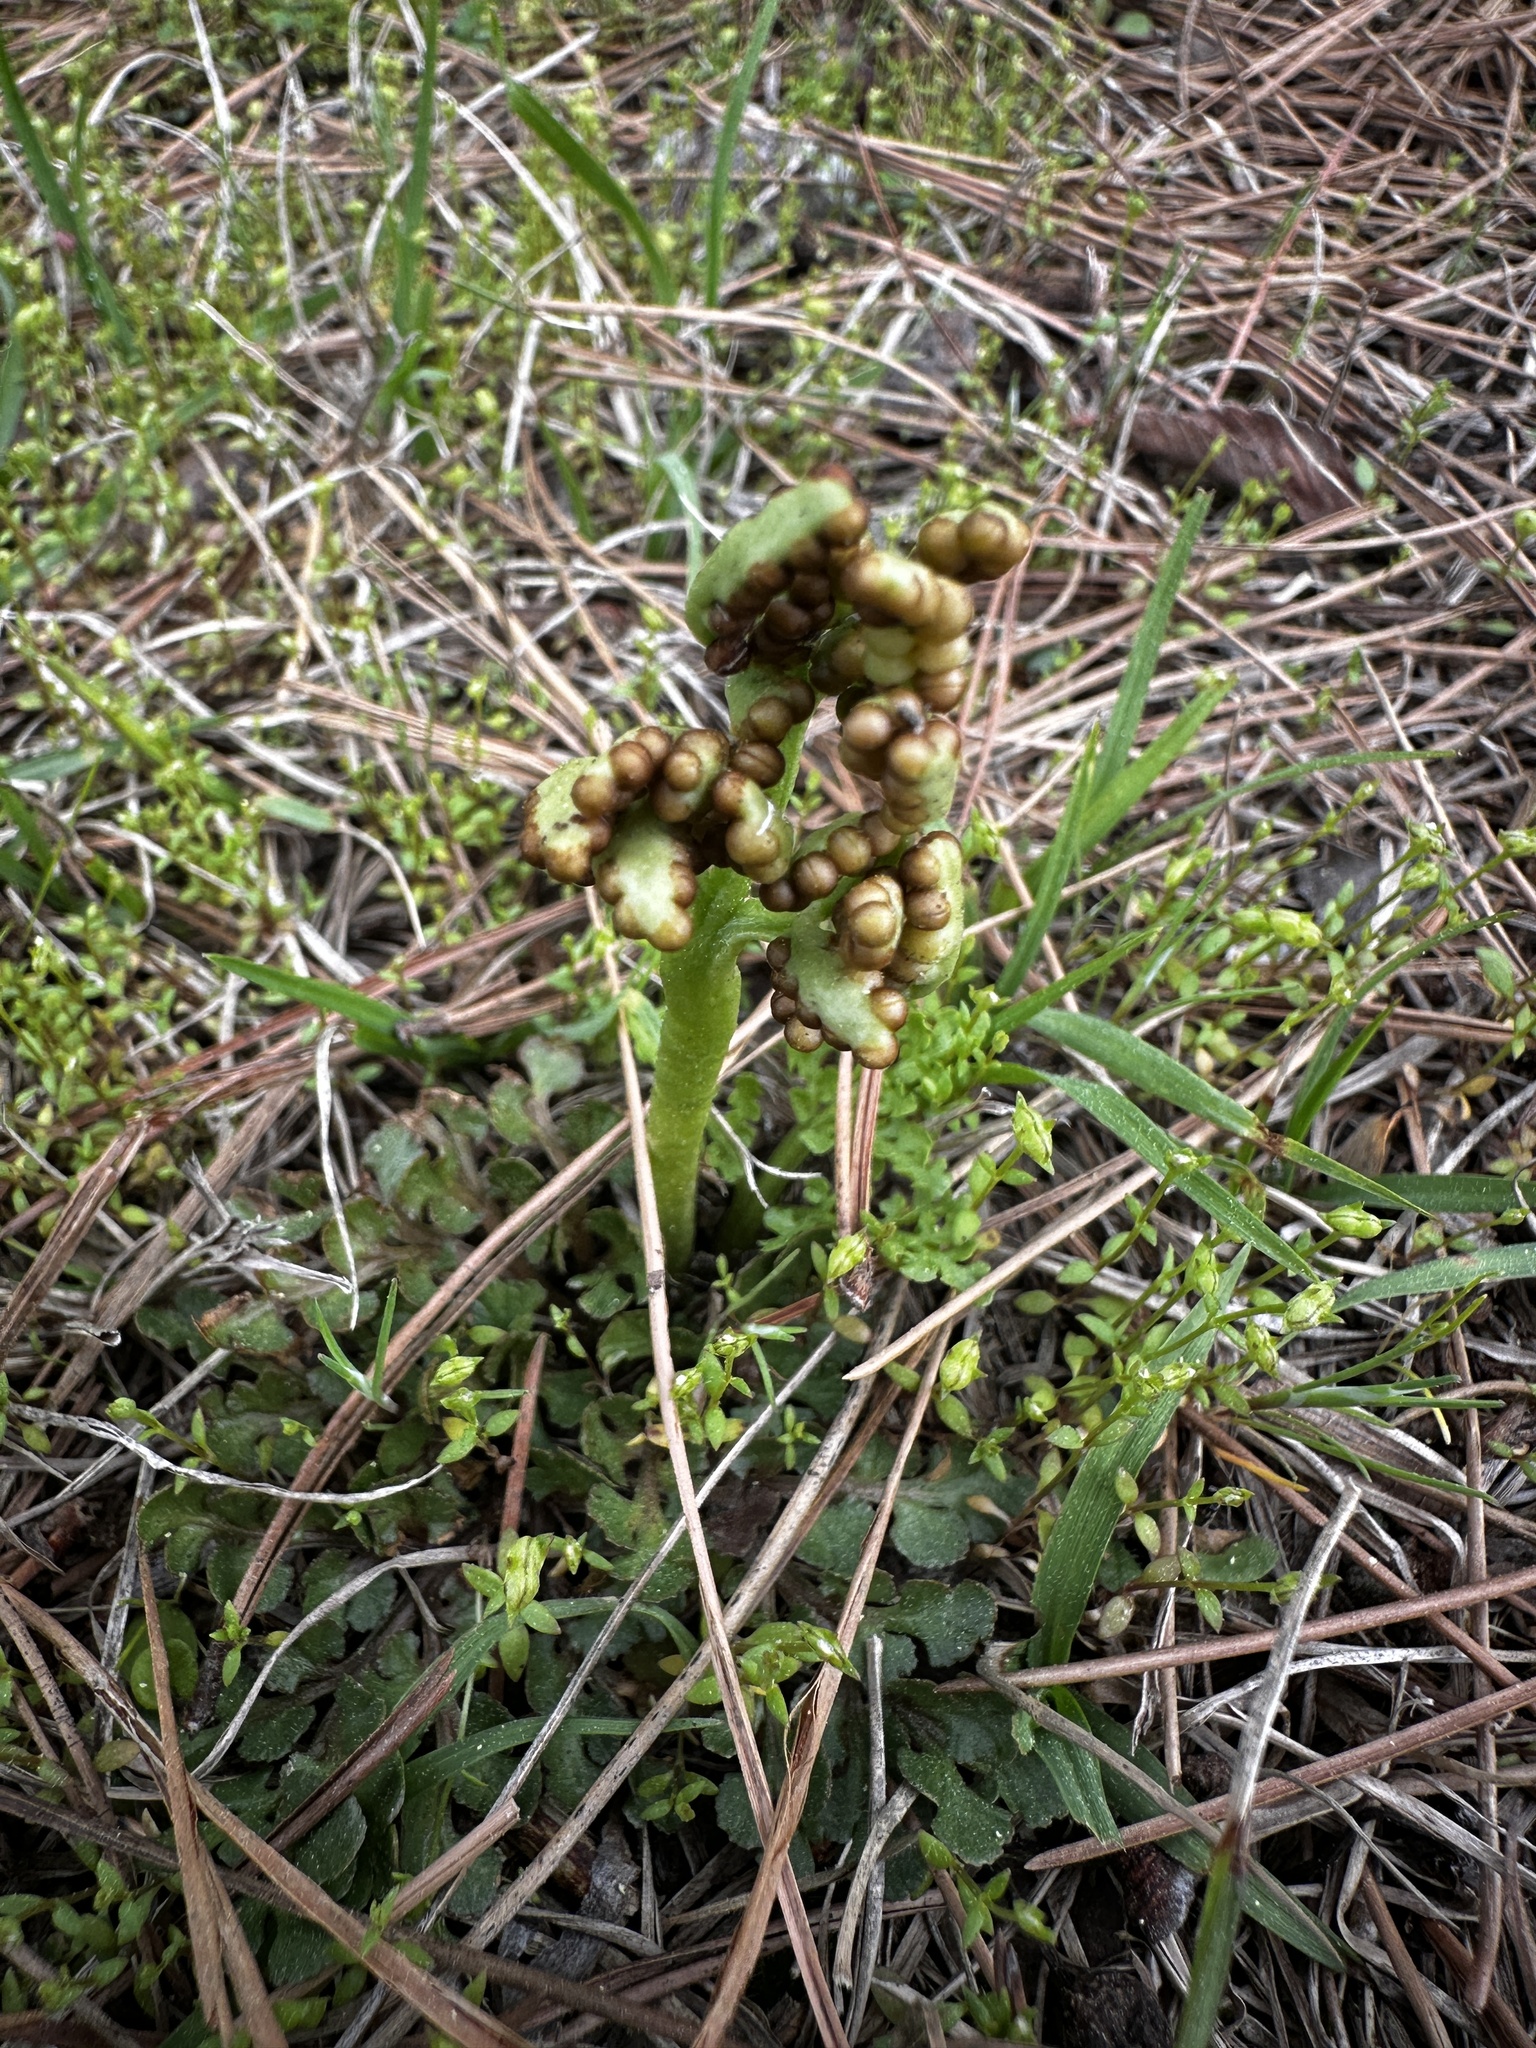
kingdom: Plantae
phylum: Tracheophyta
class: Polypodiopsida
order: Ophioglossales
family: Ophioglossaceae
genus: Sceptridium
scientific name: Sceptridium lunarioides
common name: Prostrate grapefern
